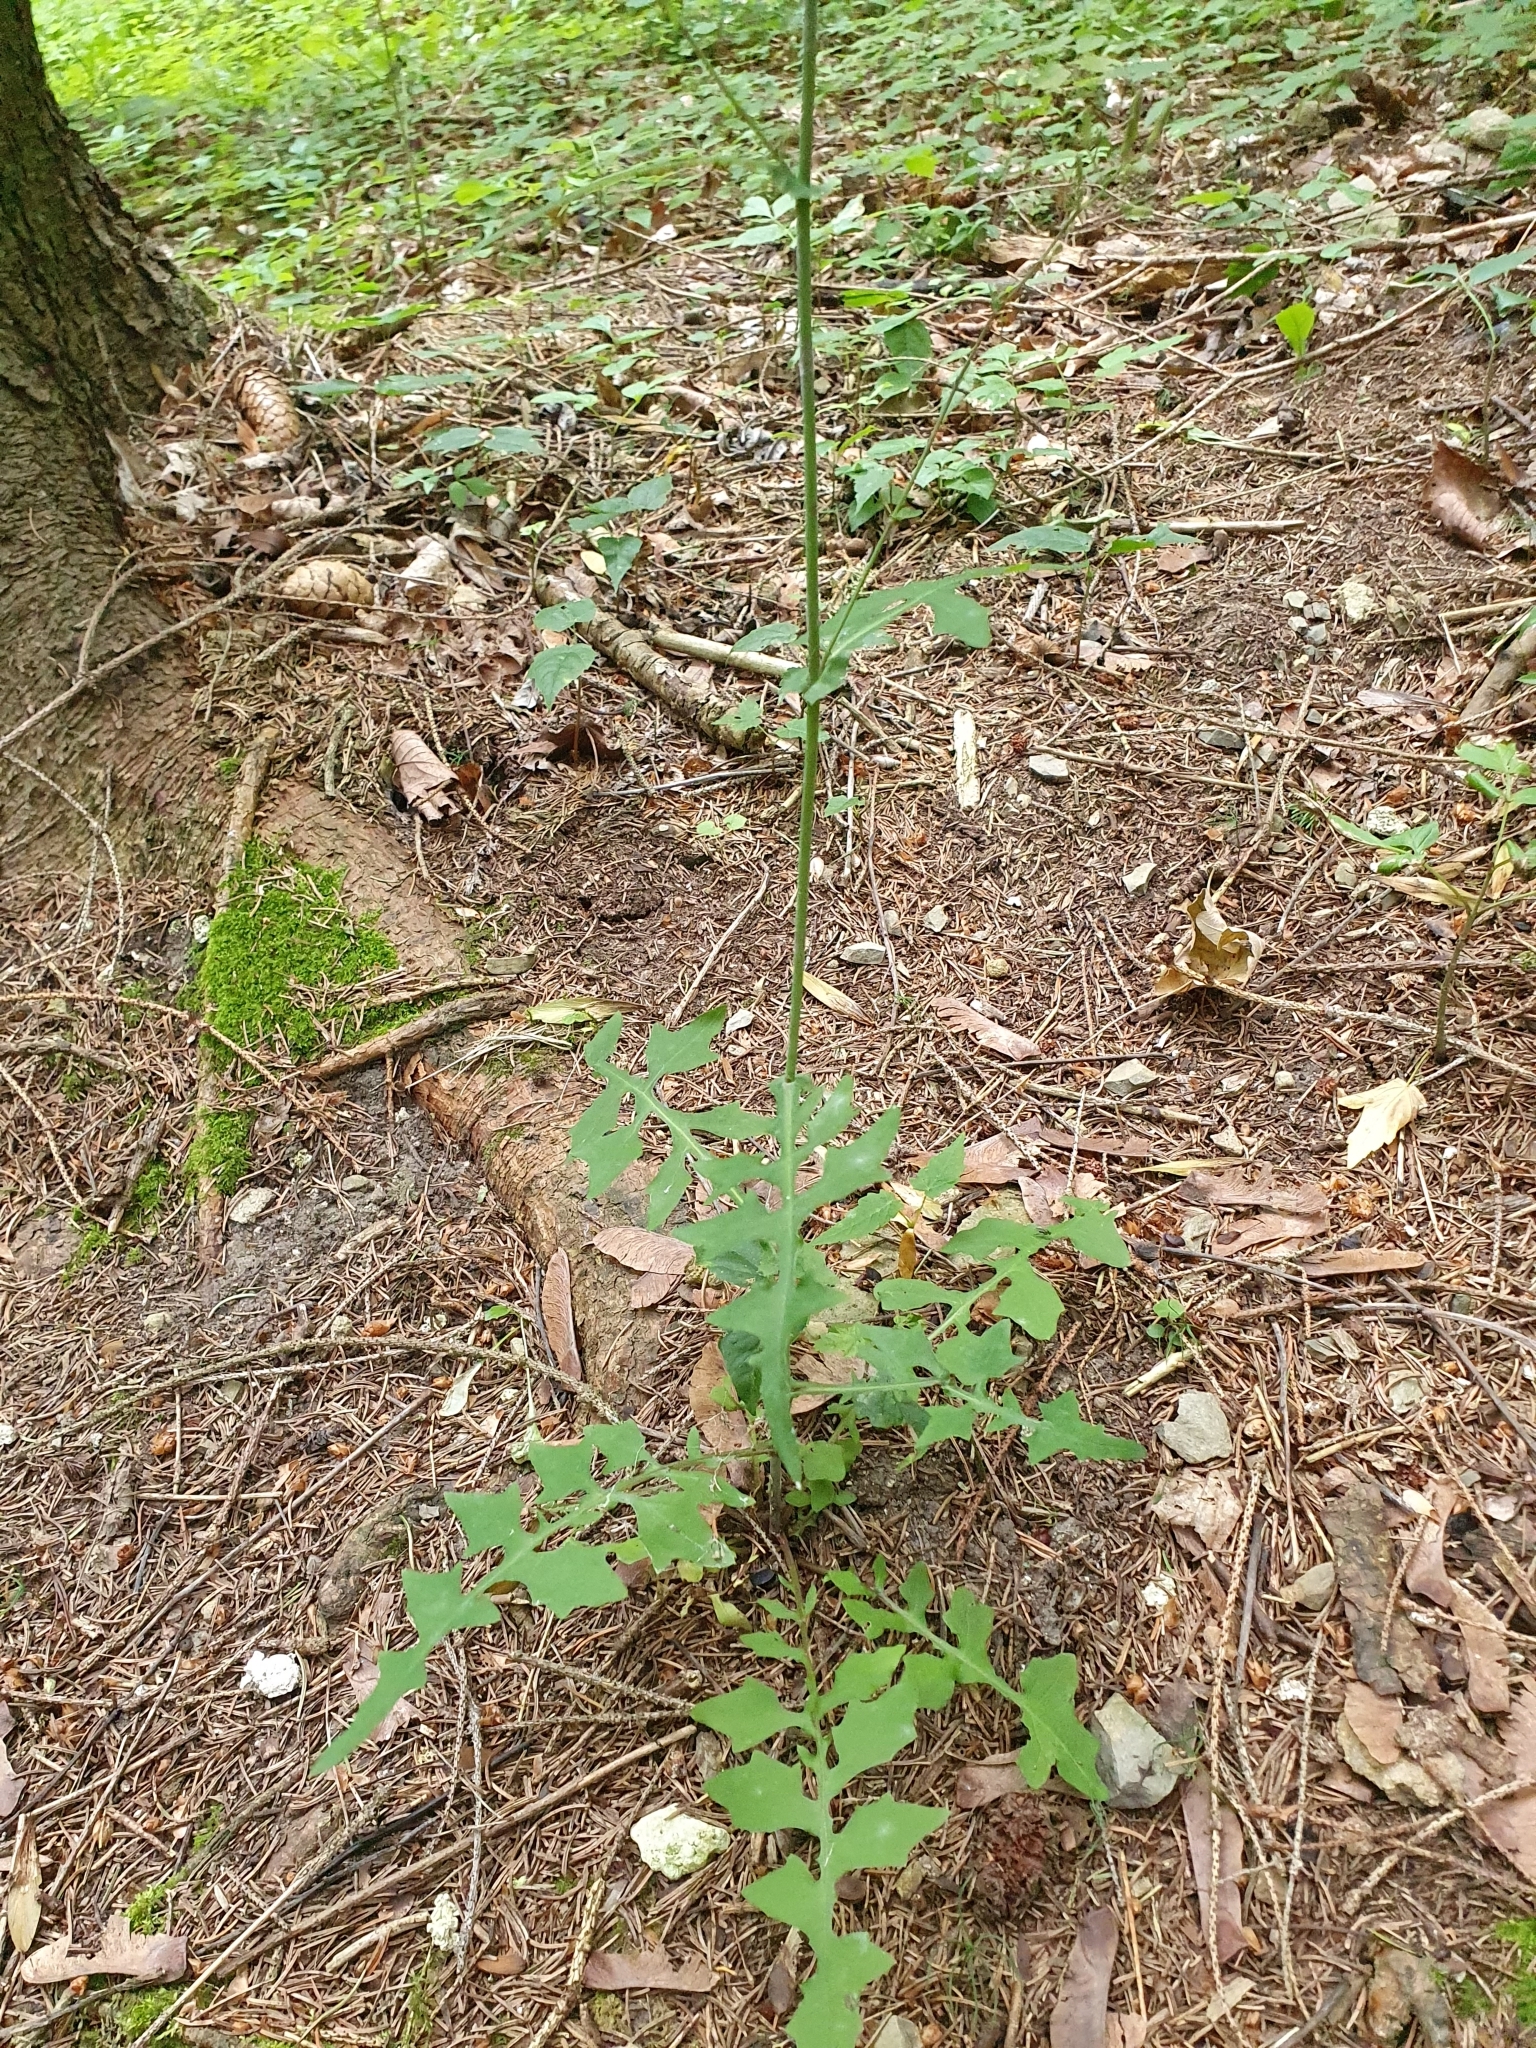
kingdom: Plantae
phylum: Tracheophyta
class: Magnoliopsida
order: Asterales
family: Asteraceae
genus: Mycelis
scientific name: Mycelis muralis
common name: Wall lettuce
